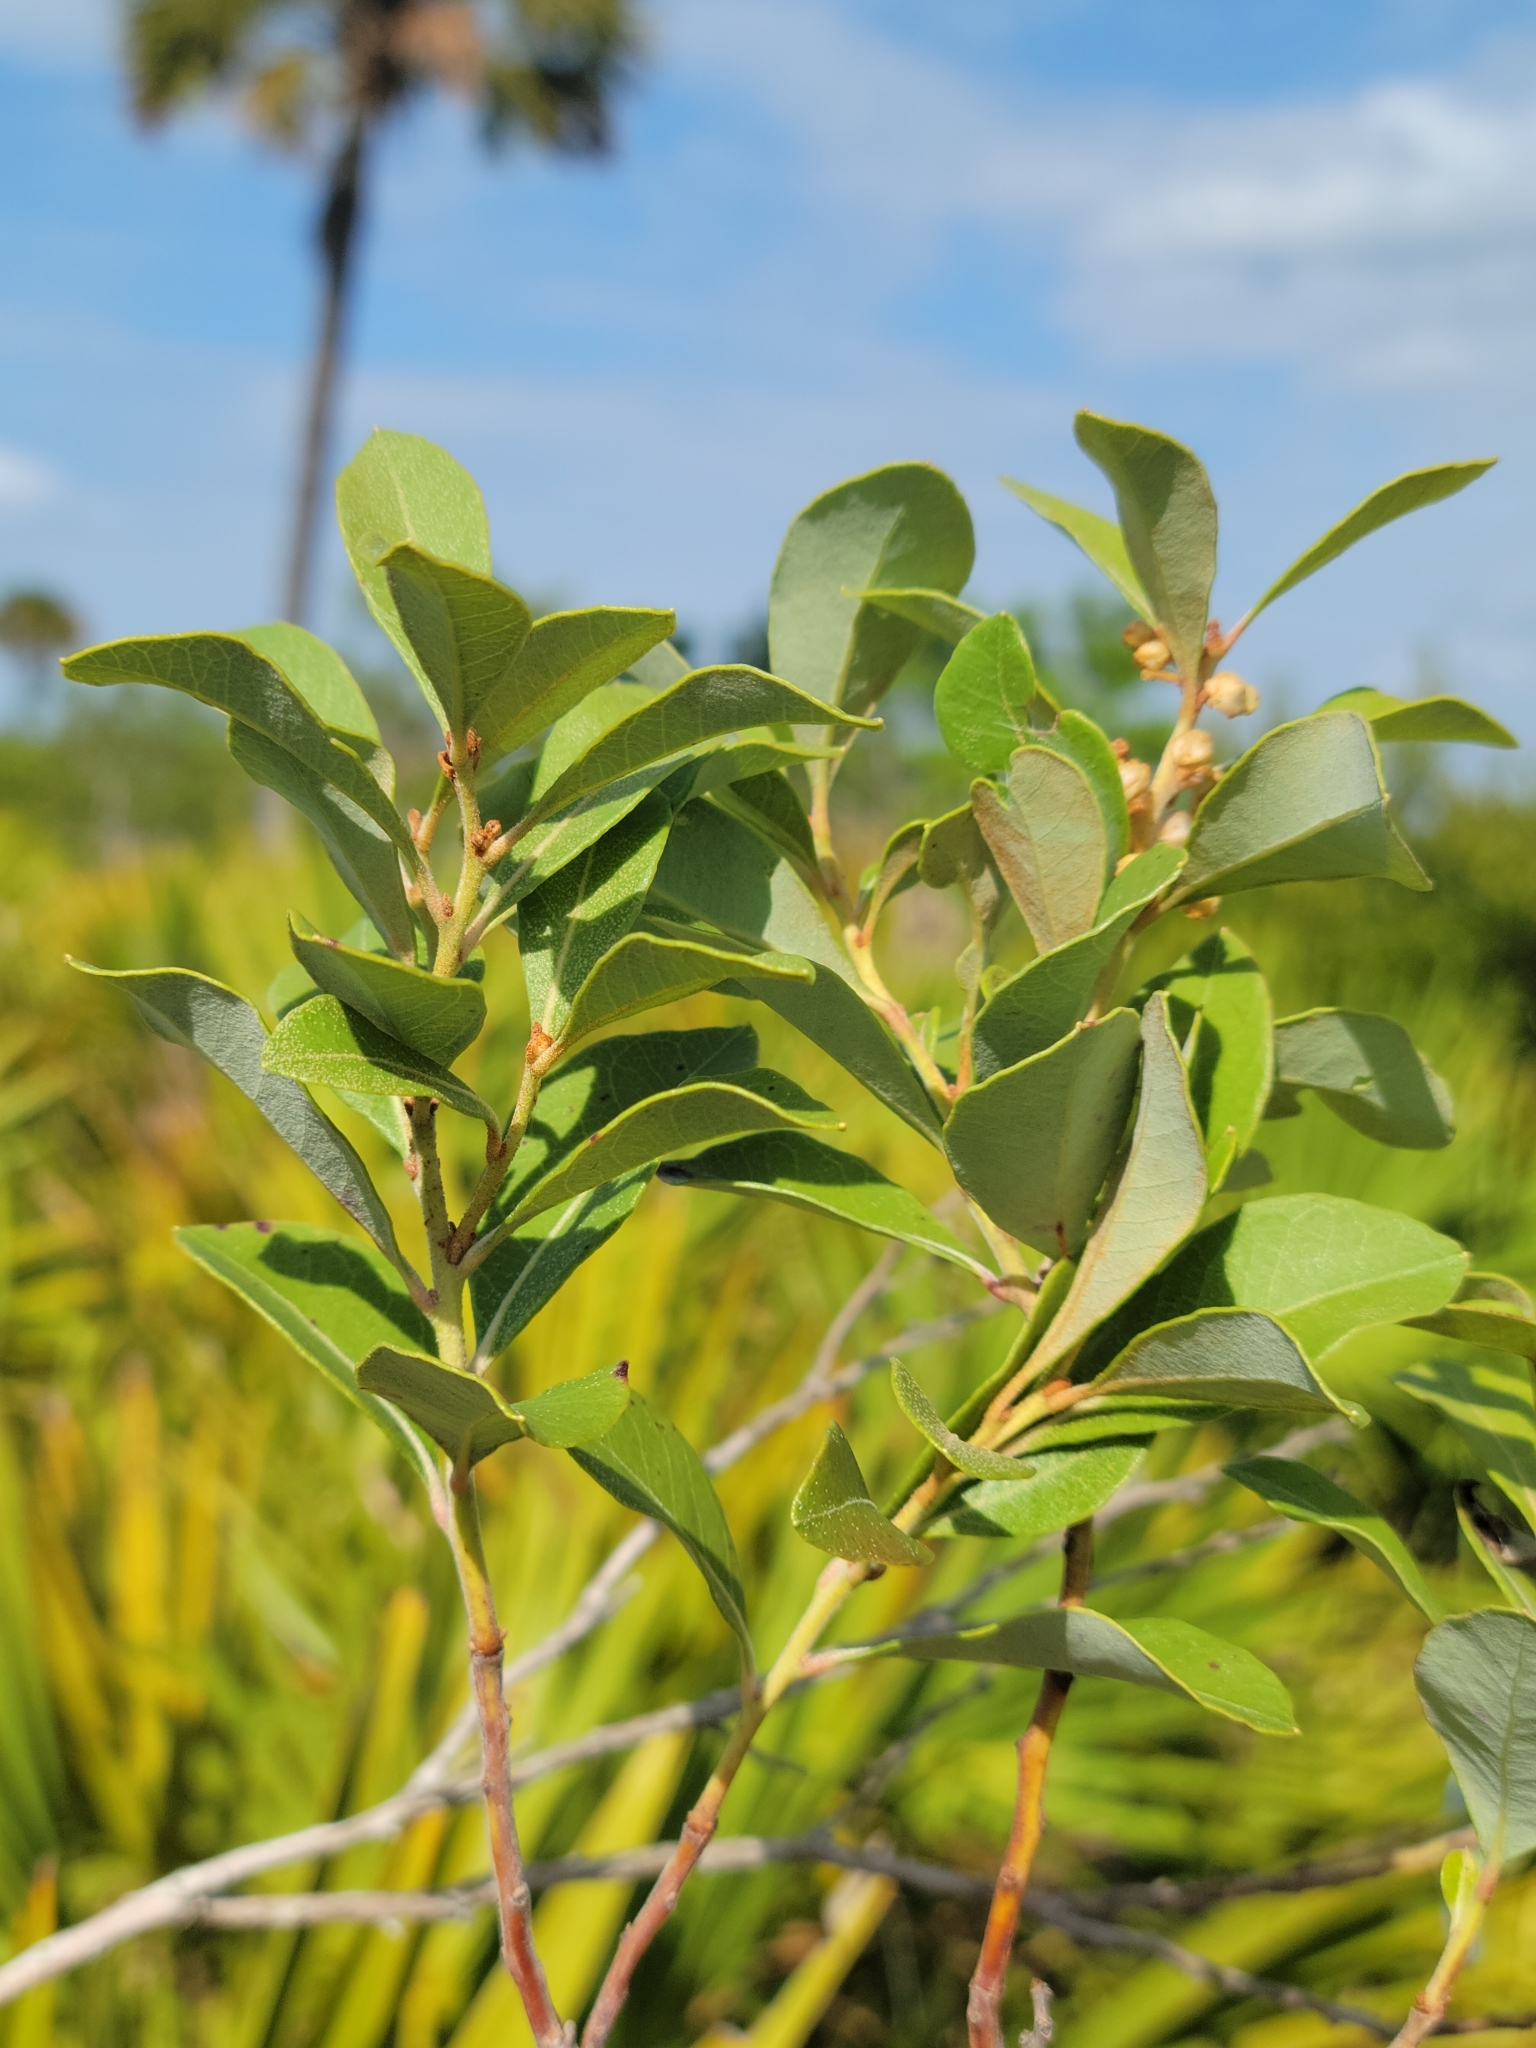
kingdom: Plantae
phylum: Tracheophyta
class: Magnoliopsida
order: Ericales
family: Ericaceae
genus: Lyonia
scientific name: Lyonia fruticosa
